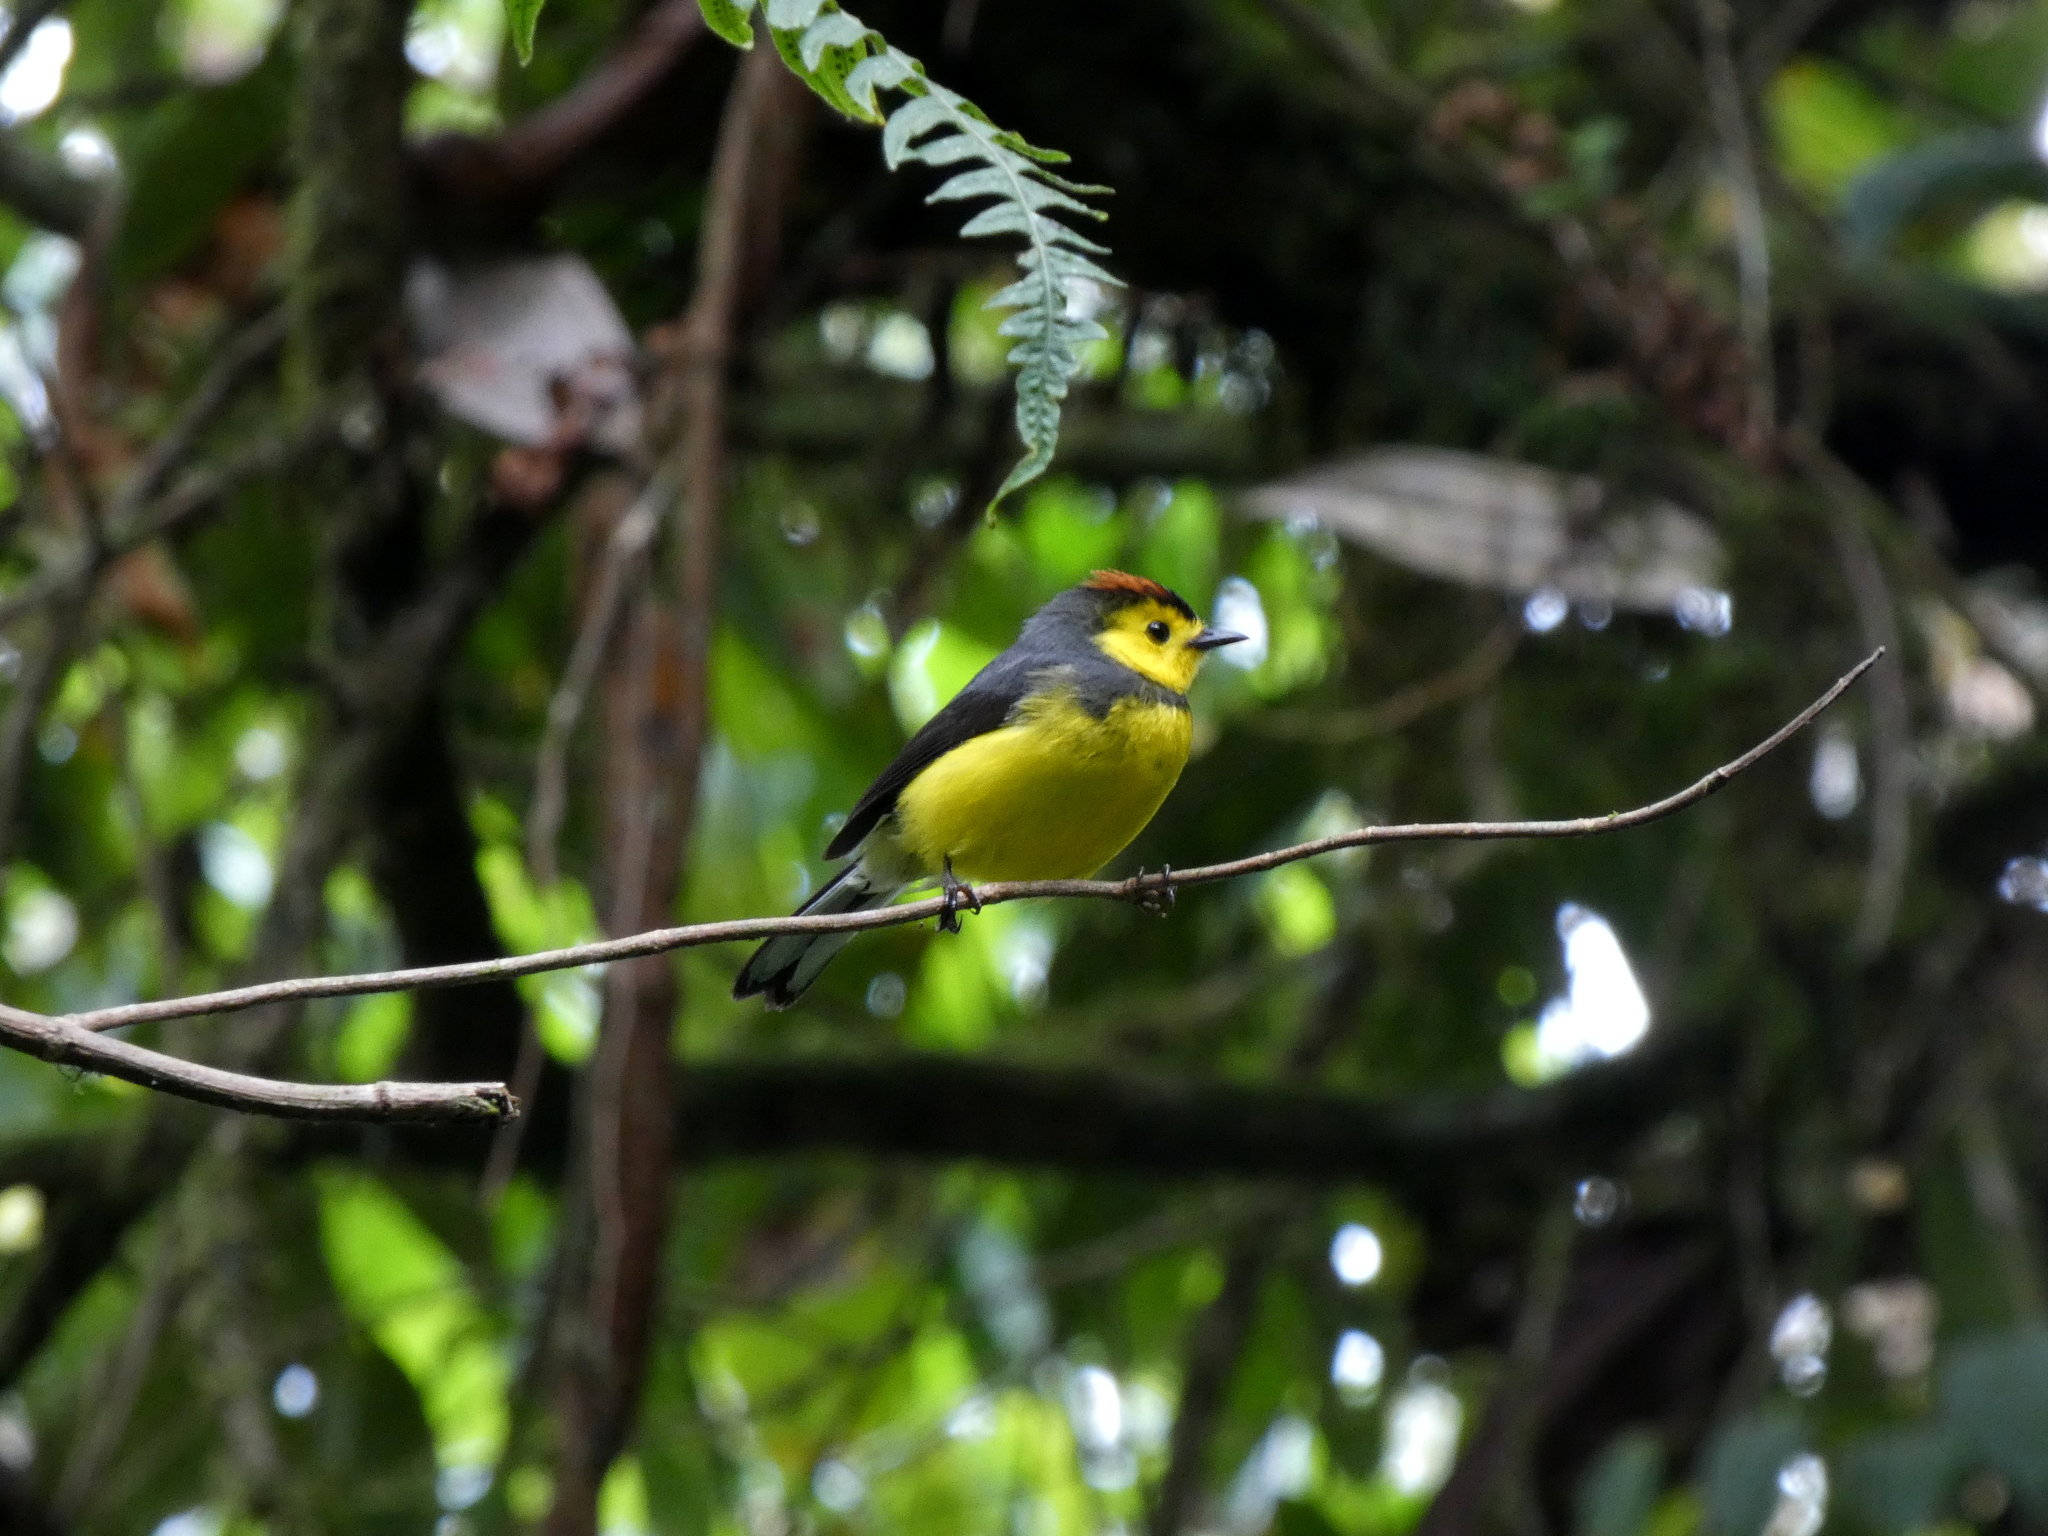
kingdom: Animalia
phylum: Chordata
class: Aves
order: Passeriformes
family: Parulidae
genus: Myioborus
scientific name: Myioborus torquatus
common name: Collared whitestart
